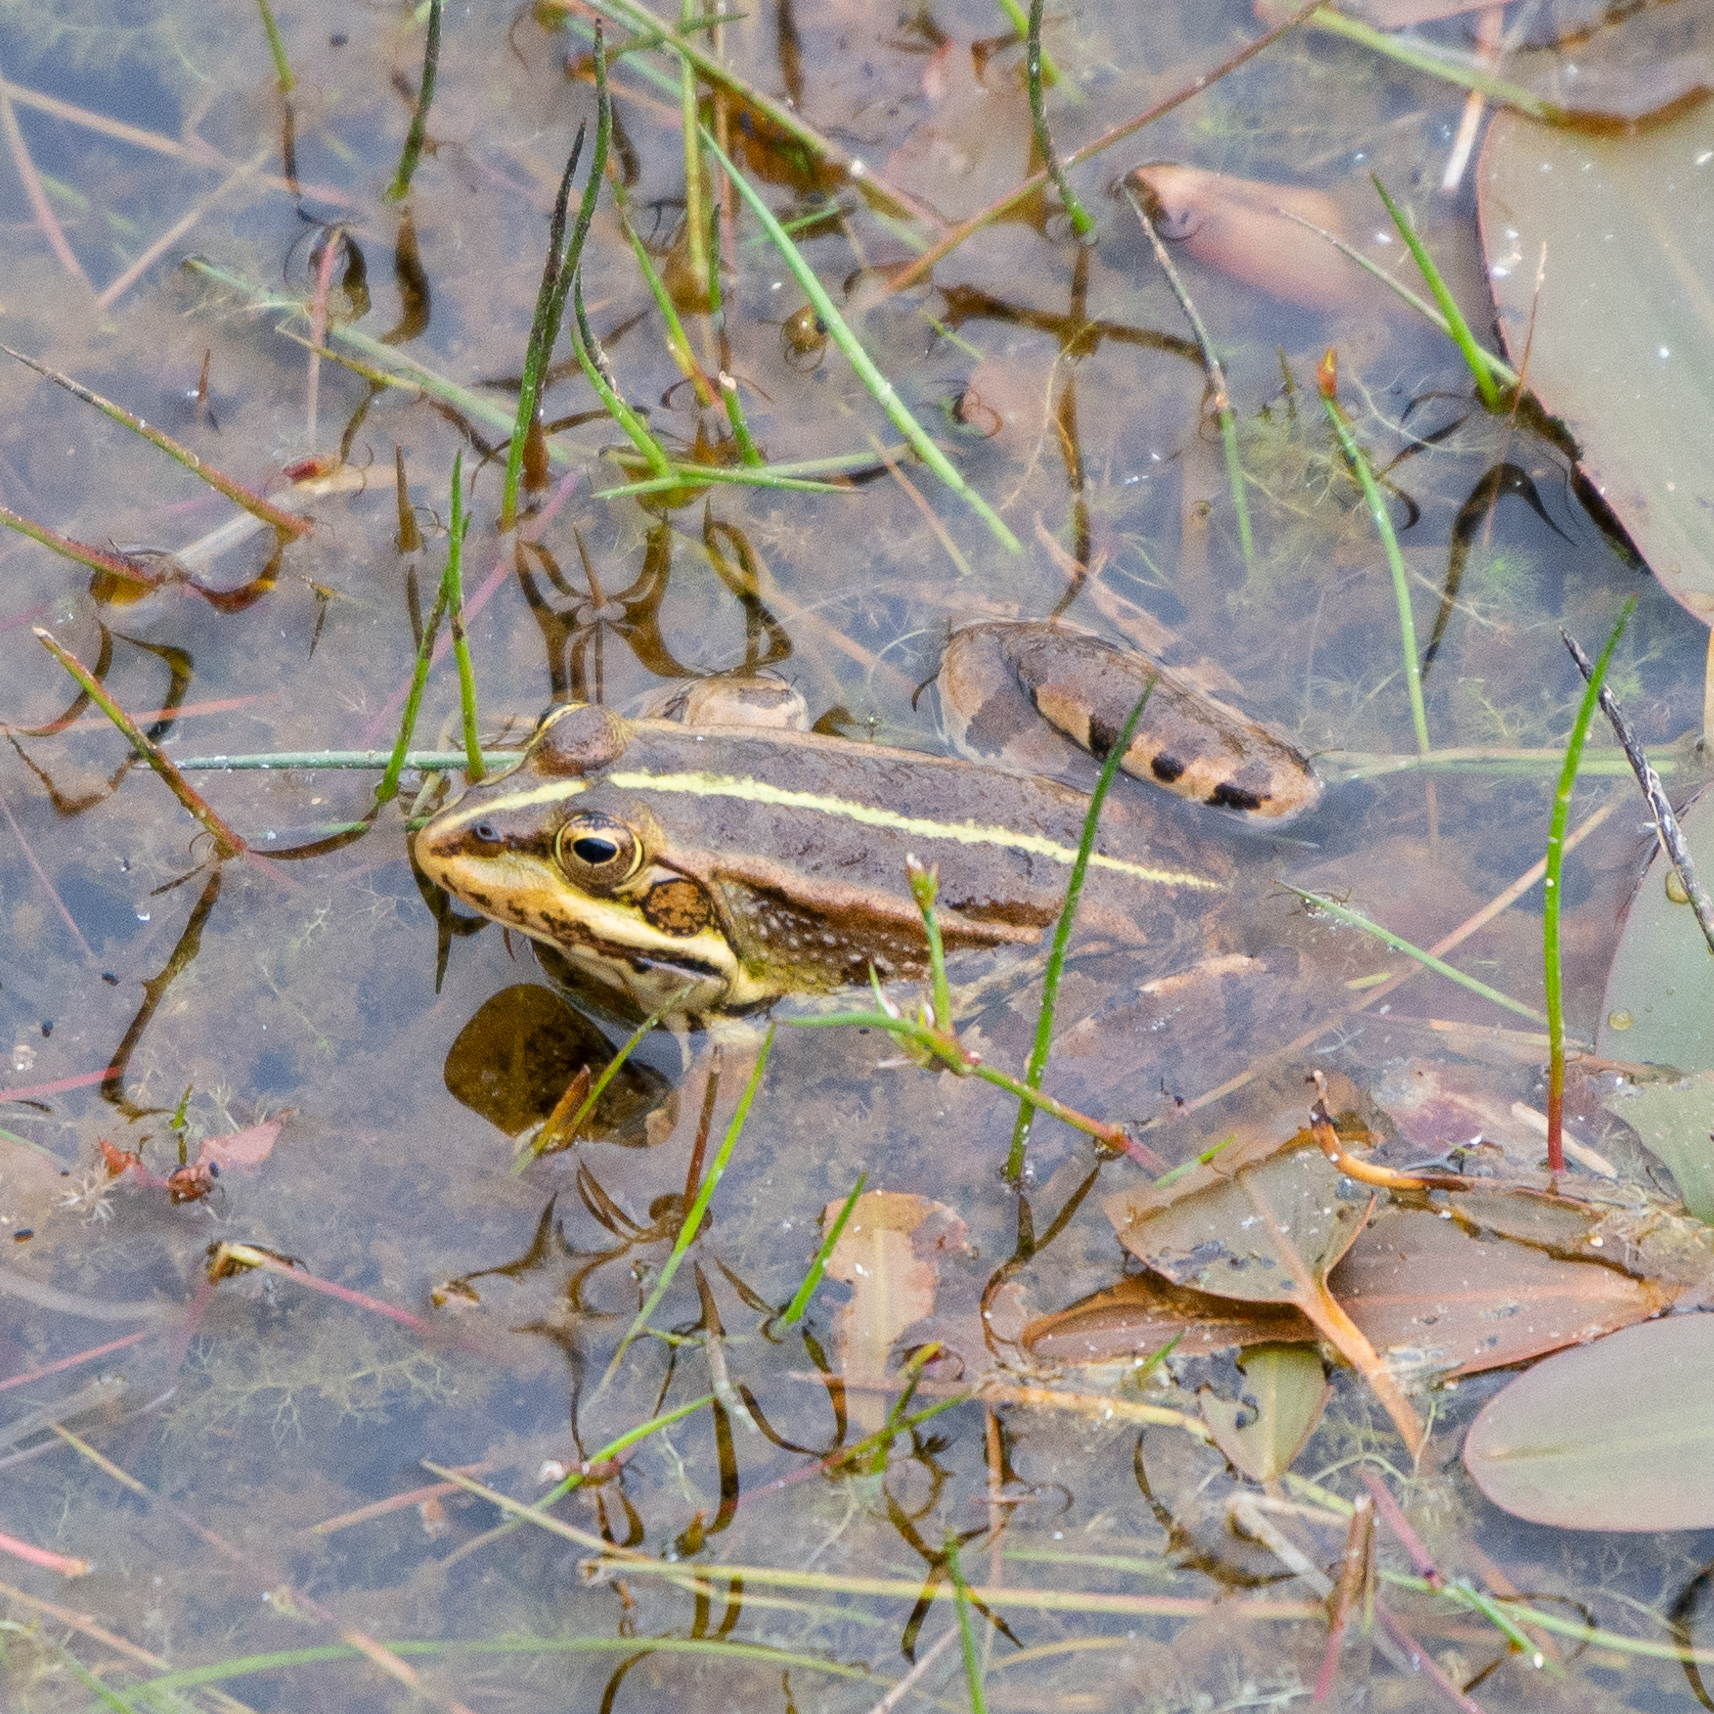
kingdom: Animalia
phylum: Chordata
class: Amphibia
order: Anura
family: Ranidae
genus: Pelophylax
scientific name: Pelophylax perezi
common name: Perez's frog
